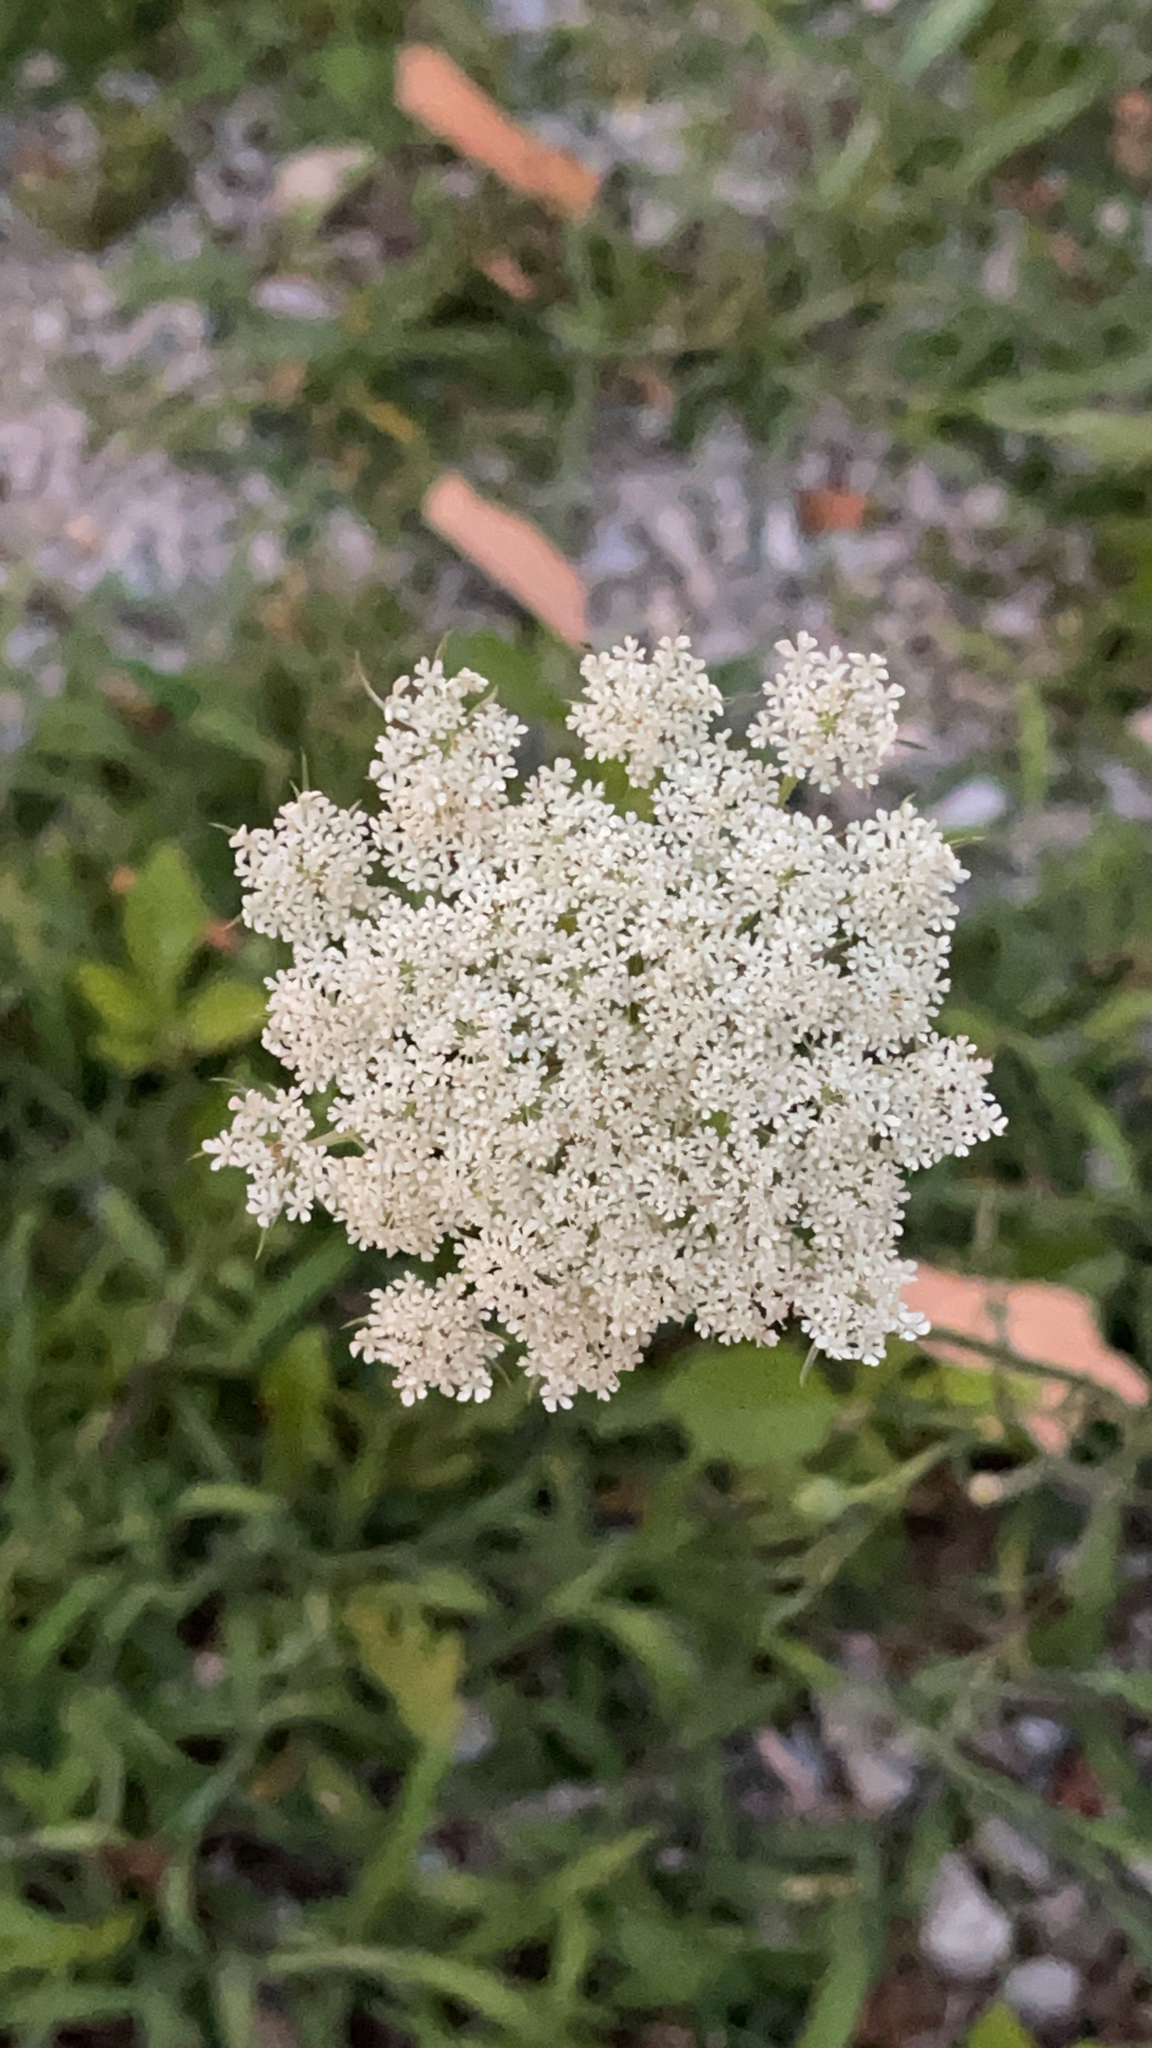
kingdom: Plantae
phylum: Tracheophyta
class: Magnoliopsida
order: Apiales
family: Apiaceae
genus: Daucus
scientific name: Daucus carota
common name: Wild carrot
